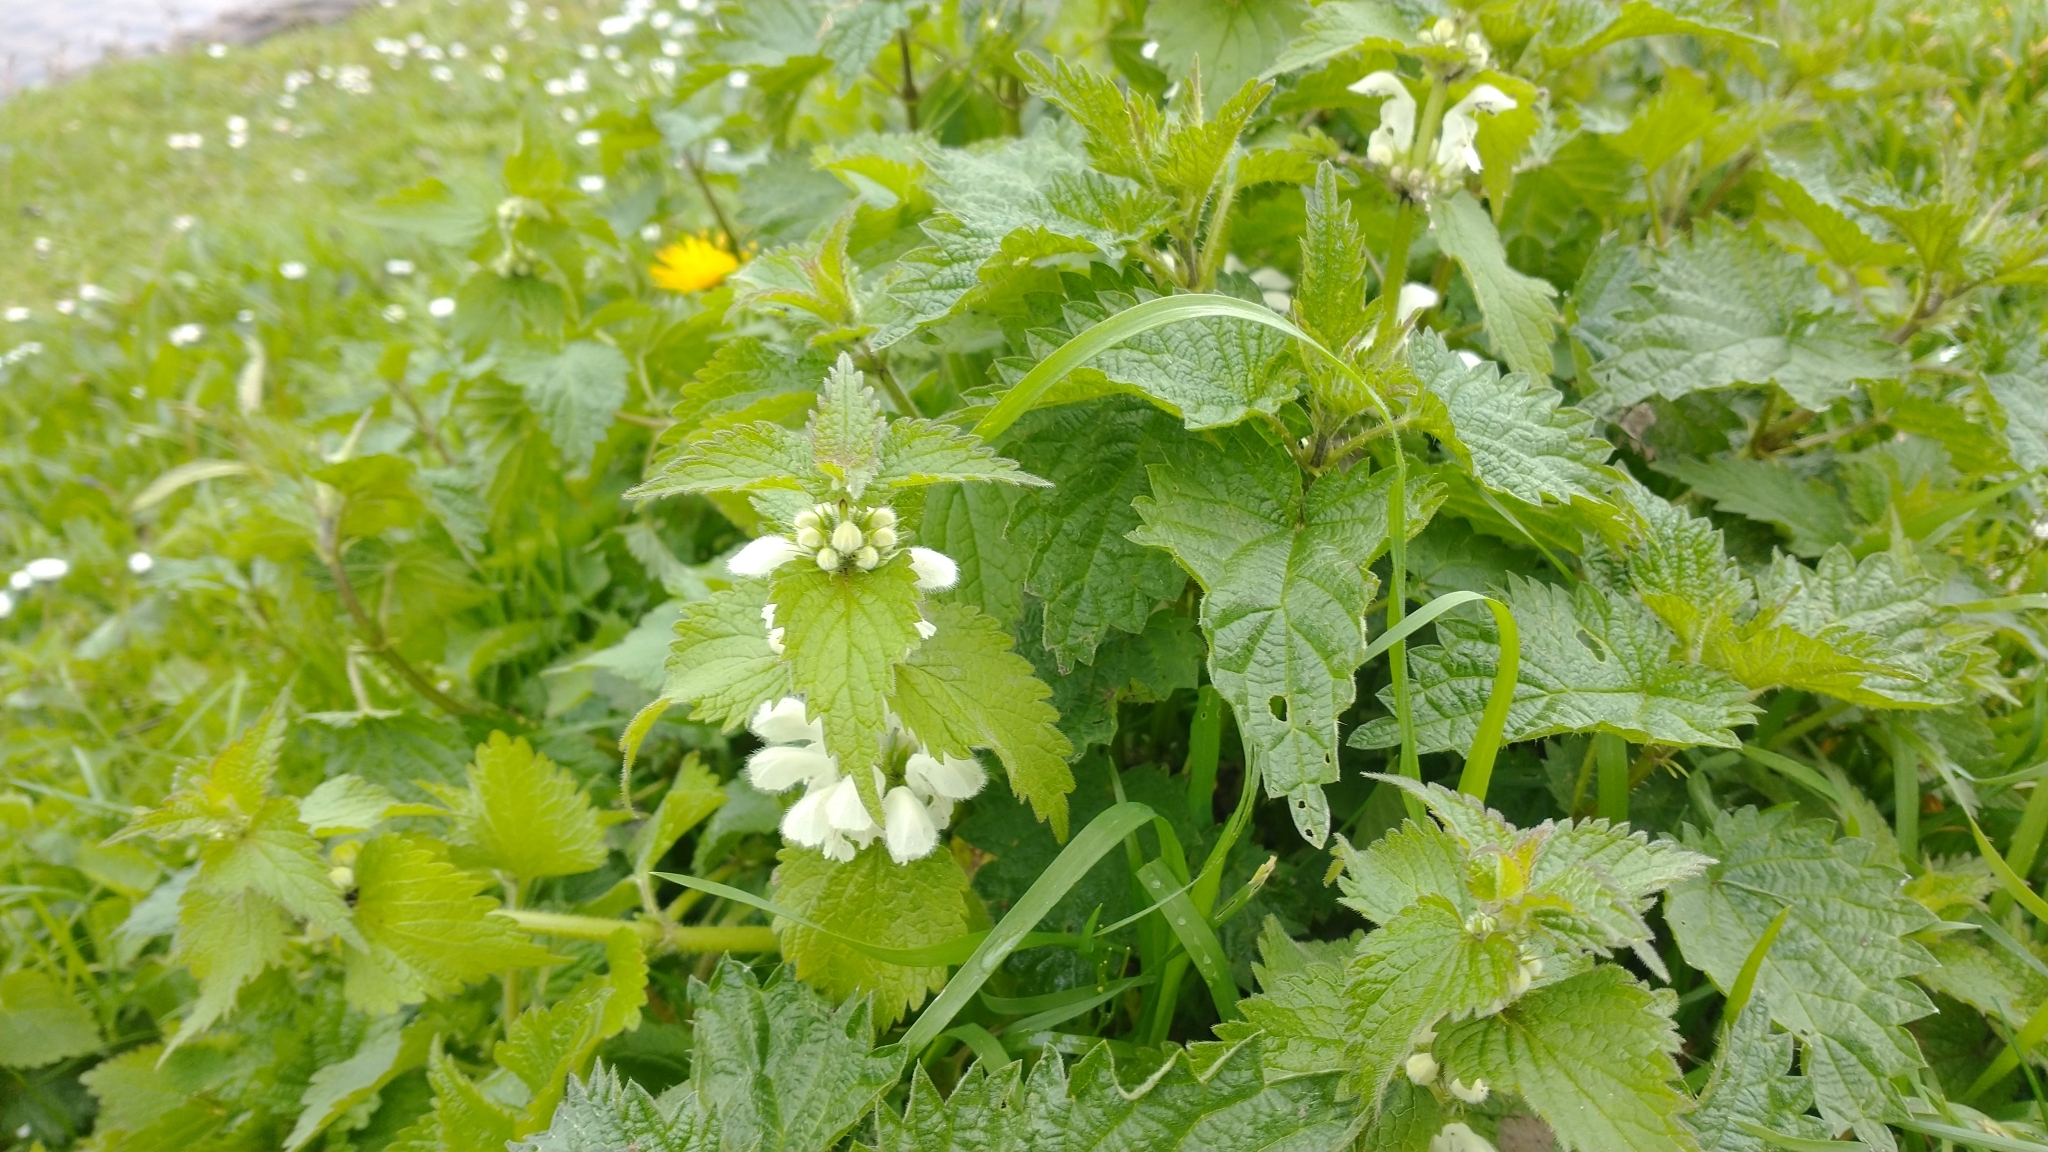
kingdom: Plantae
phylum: Tracheophyta
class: Magnoliopsida
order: Lamiales
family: Lamiaceae
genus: Lamium
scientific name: Lamium album
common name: White dead-nettle
